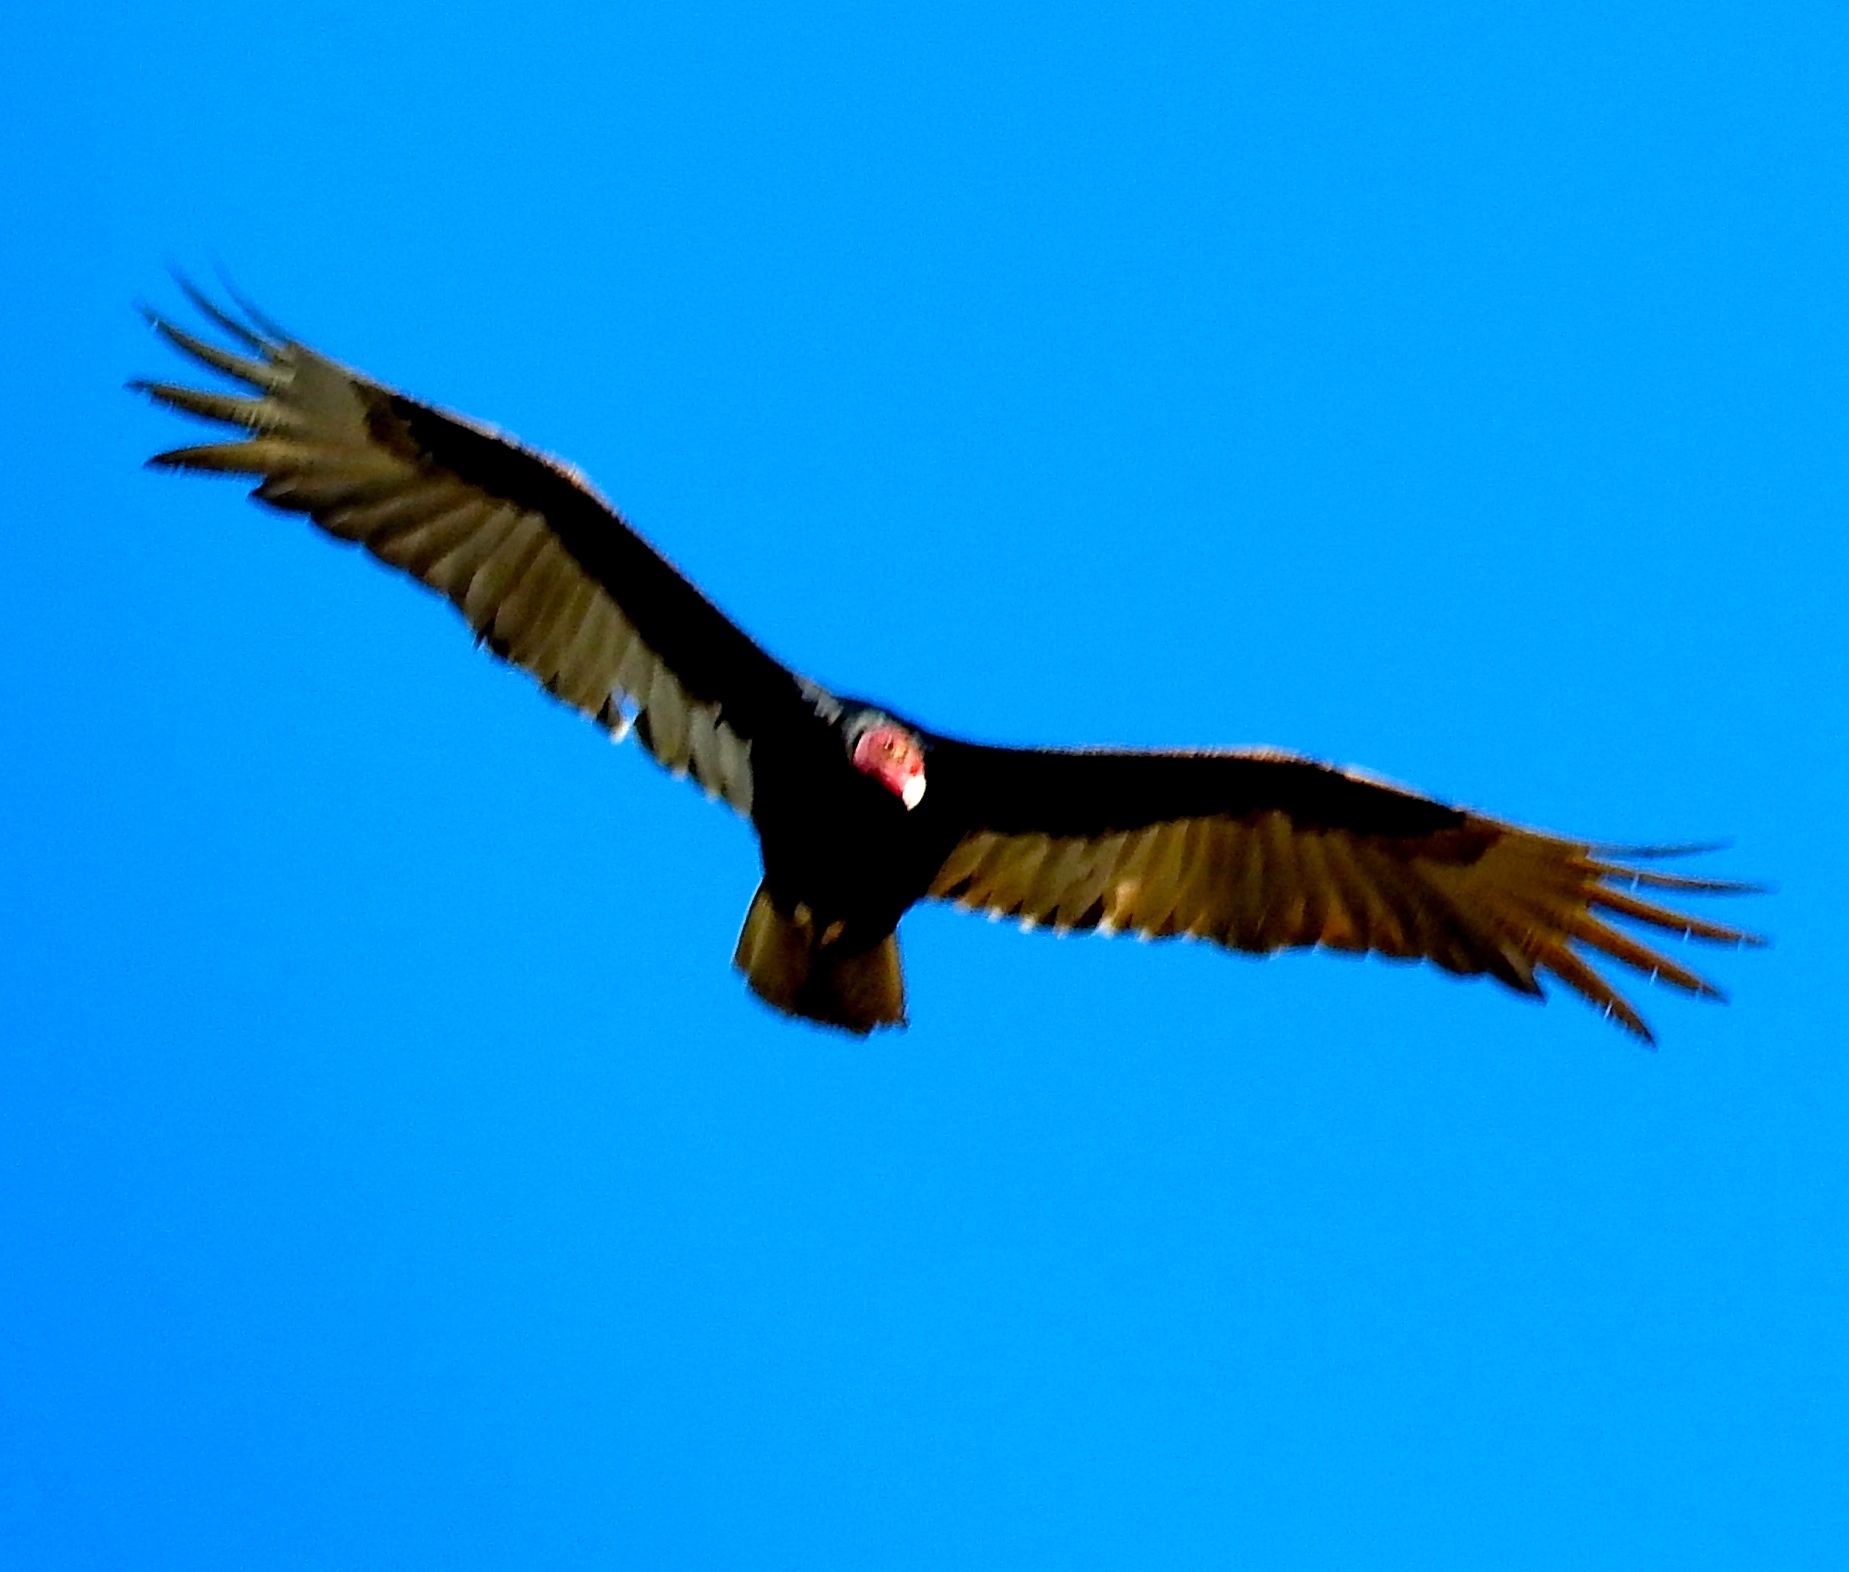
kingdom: Animalia
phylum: Chordata
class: Aves
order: Accipitriformes
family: Cathartidae
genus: Cathartes
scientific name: Cathartes aura
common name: Turkey vulture
